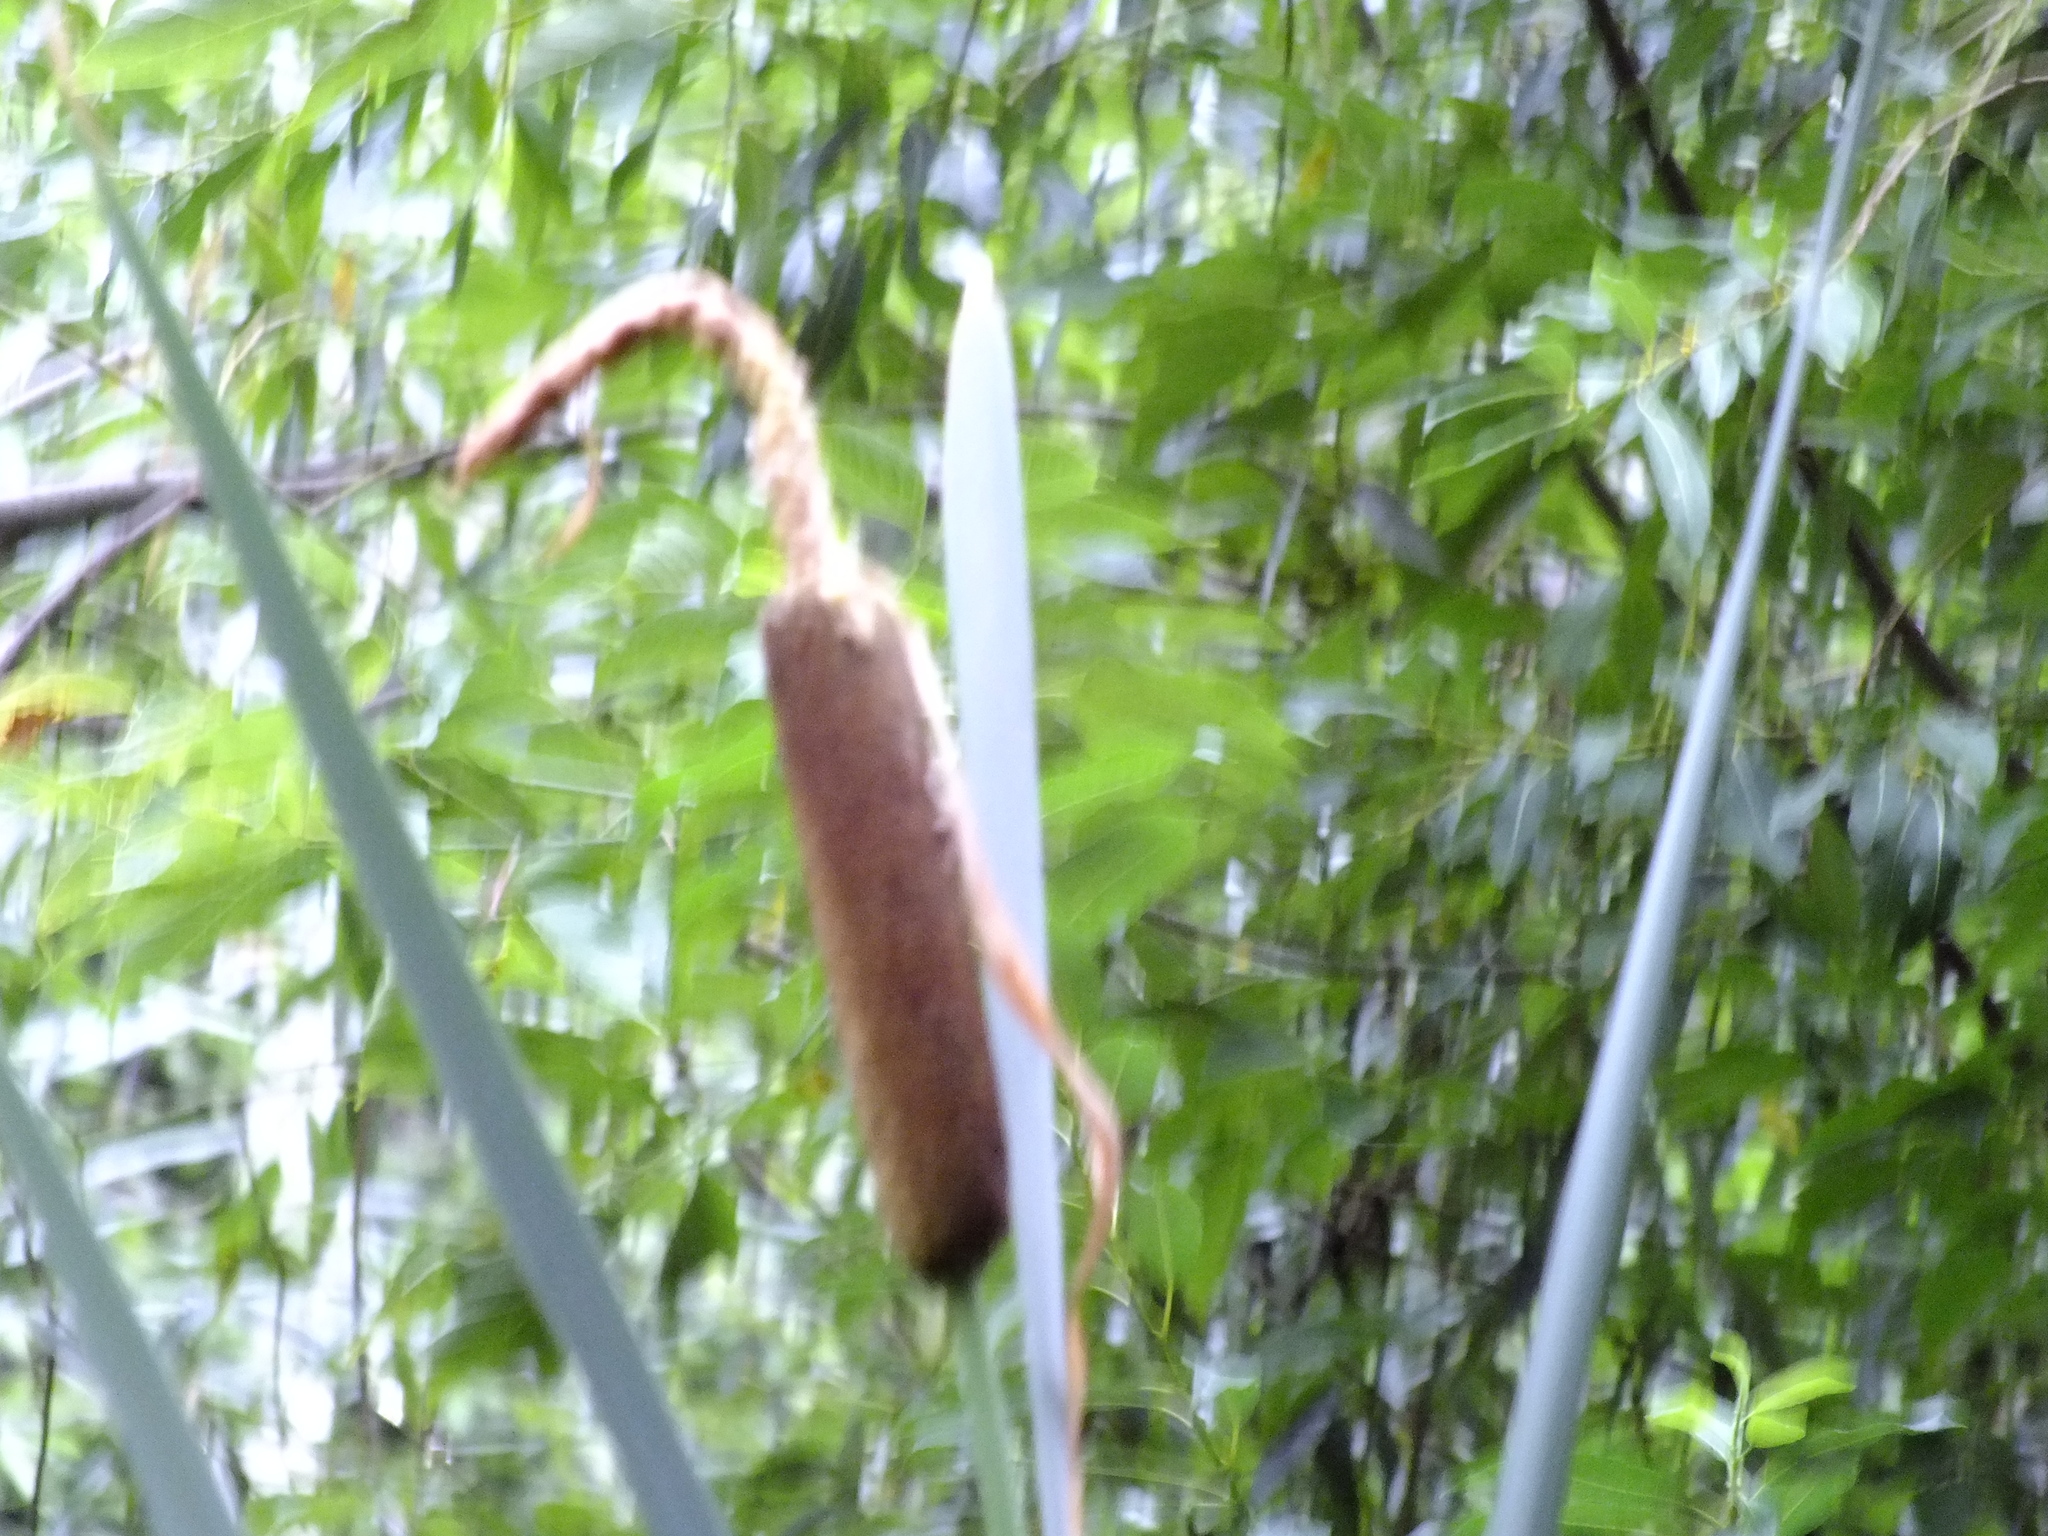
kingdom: Plantae
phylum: Tracheophyta
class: Liliopsida
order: Poales
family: Typhaceae
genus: Typha
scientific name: Typha latifolia
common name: Broadleaf cattail
